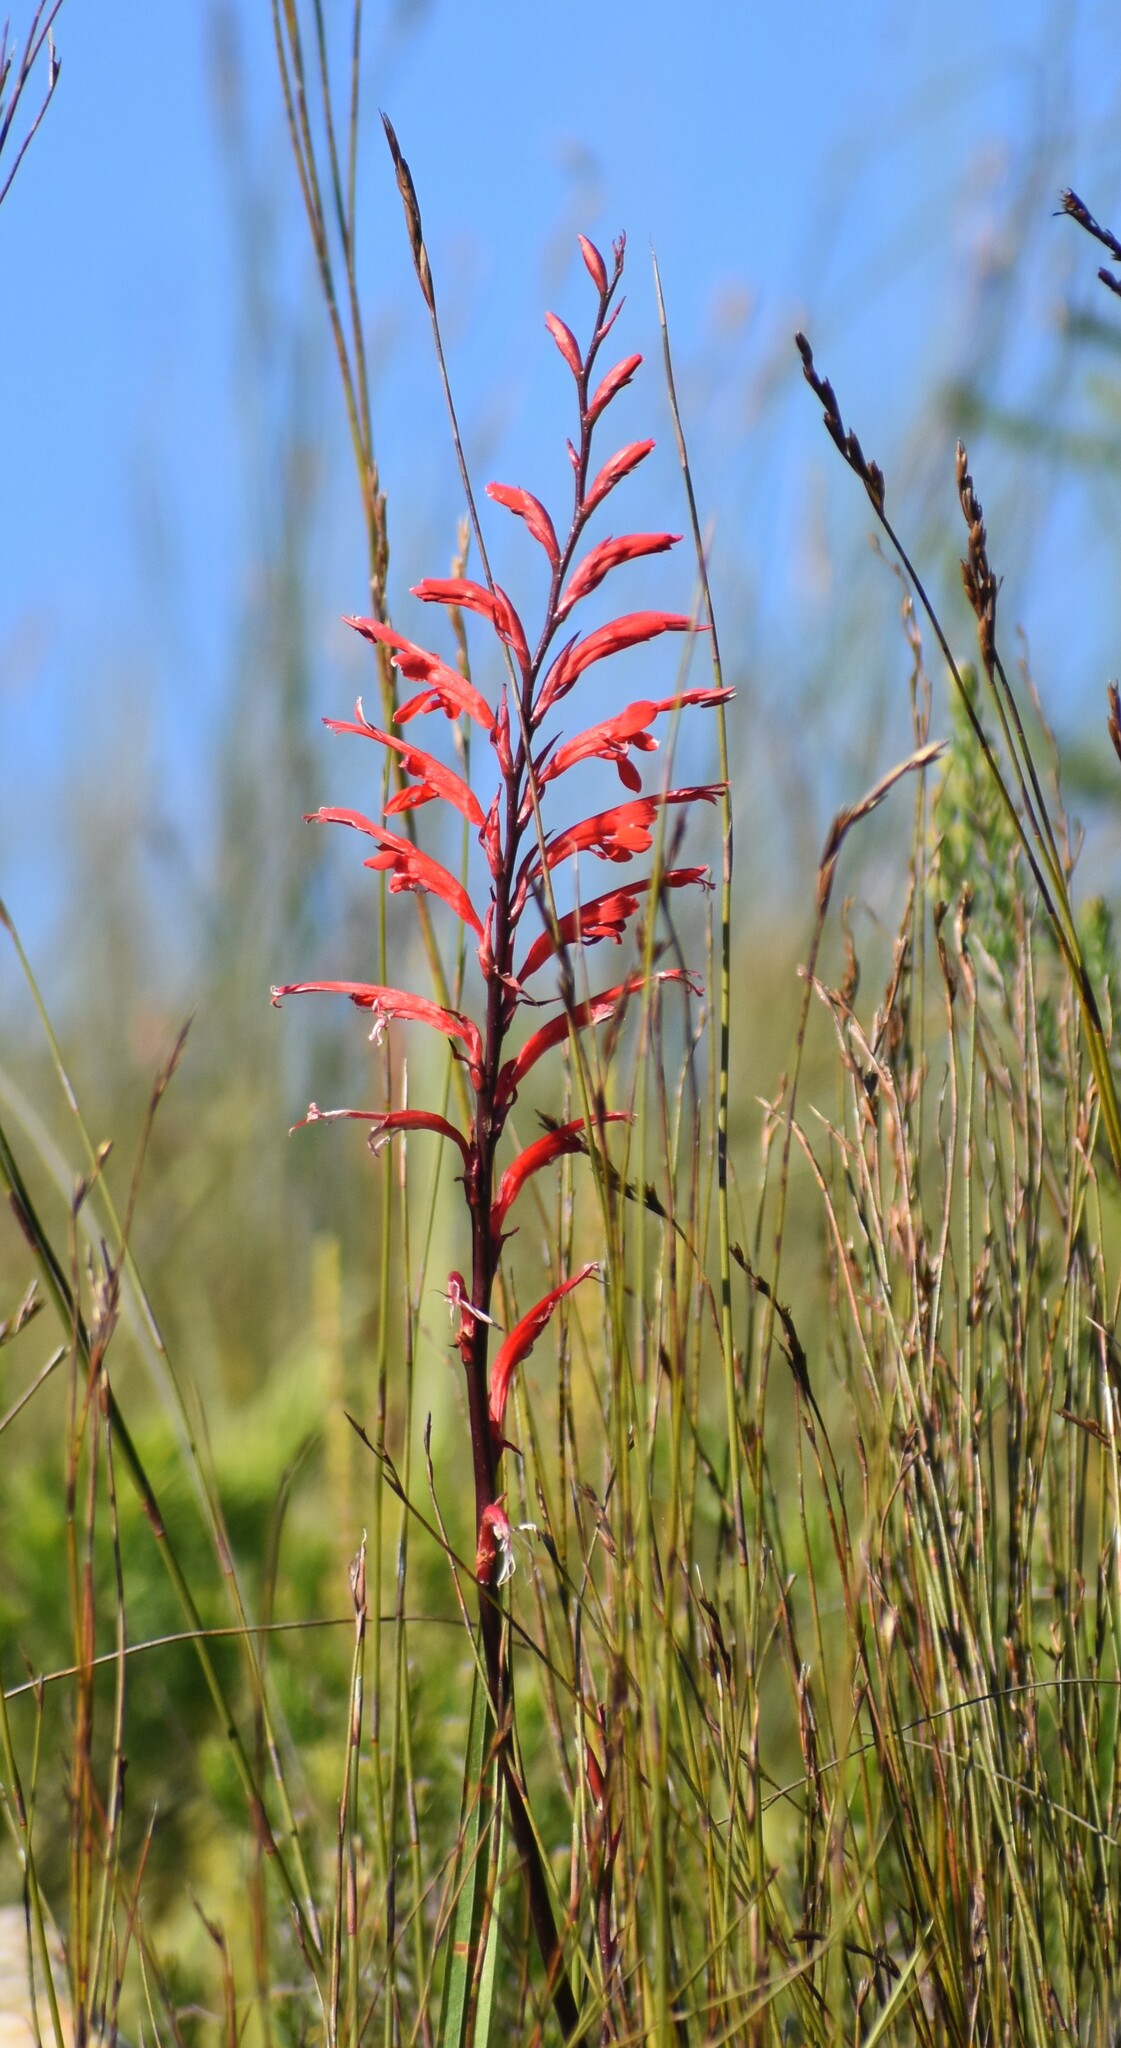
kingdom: Plantae
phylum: Tracheophyta
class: Liliopsida
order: Asparagales
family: Iridaceae
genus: Tritoniopsis
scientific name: Tritoniopsis caffra
